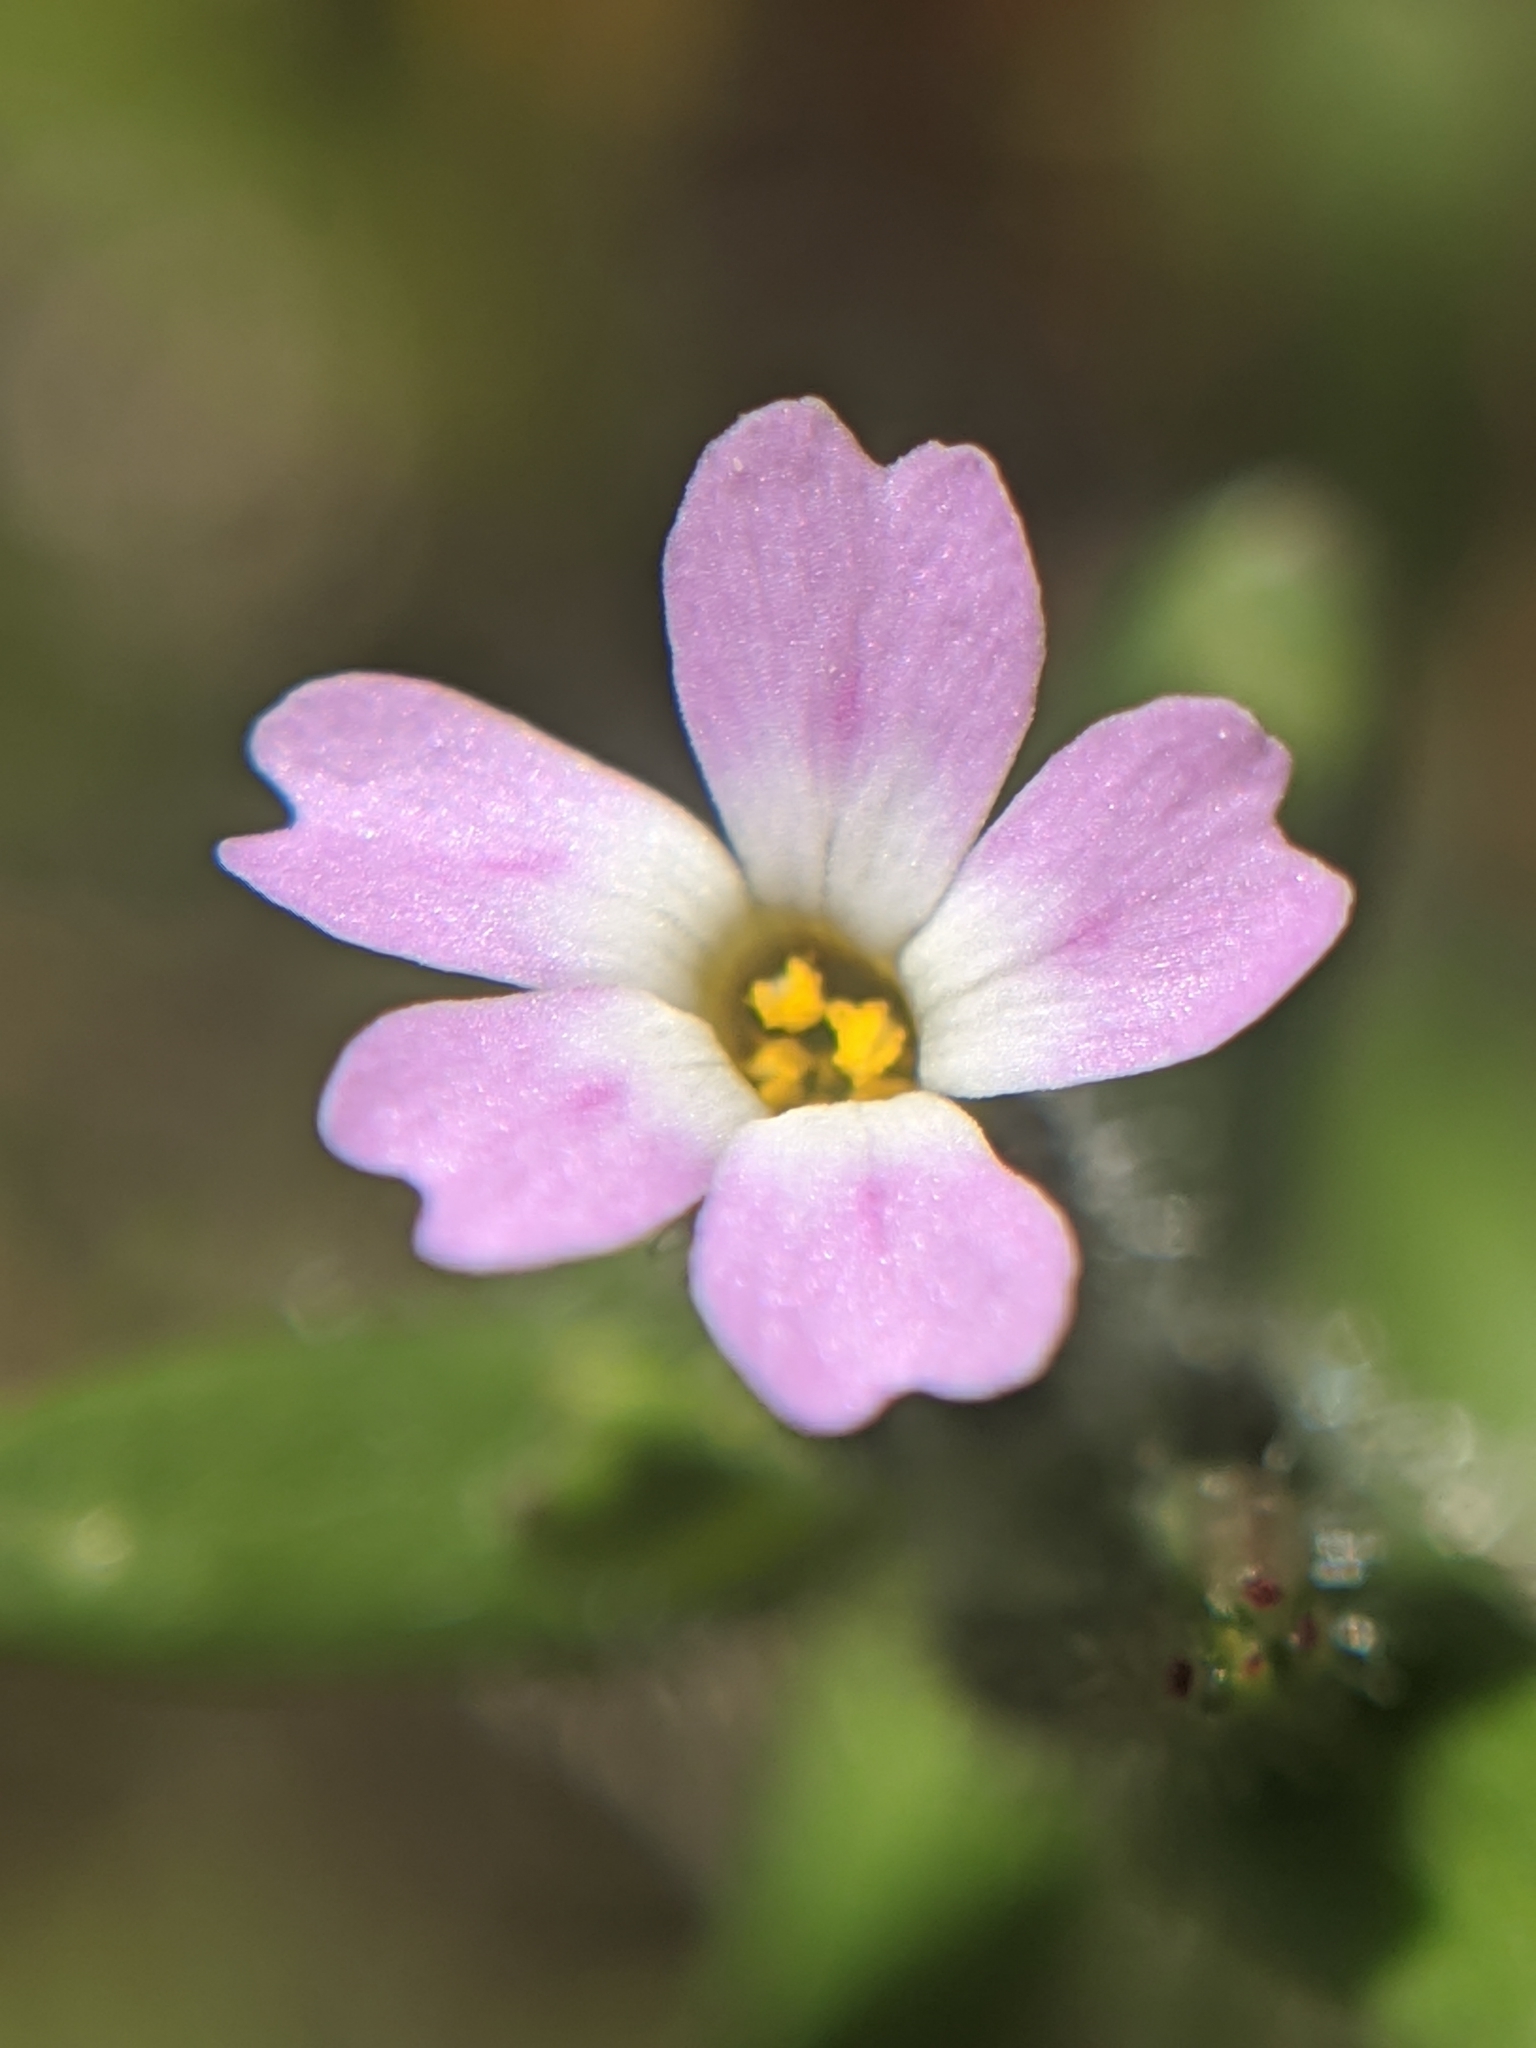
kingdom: Plantae
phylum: Tracheophyta
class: Magnoliopsida
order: Ericales
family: Polemoniaceae
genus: Phlox
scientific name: Phlox gracilis
